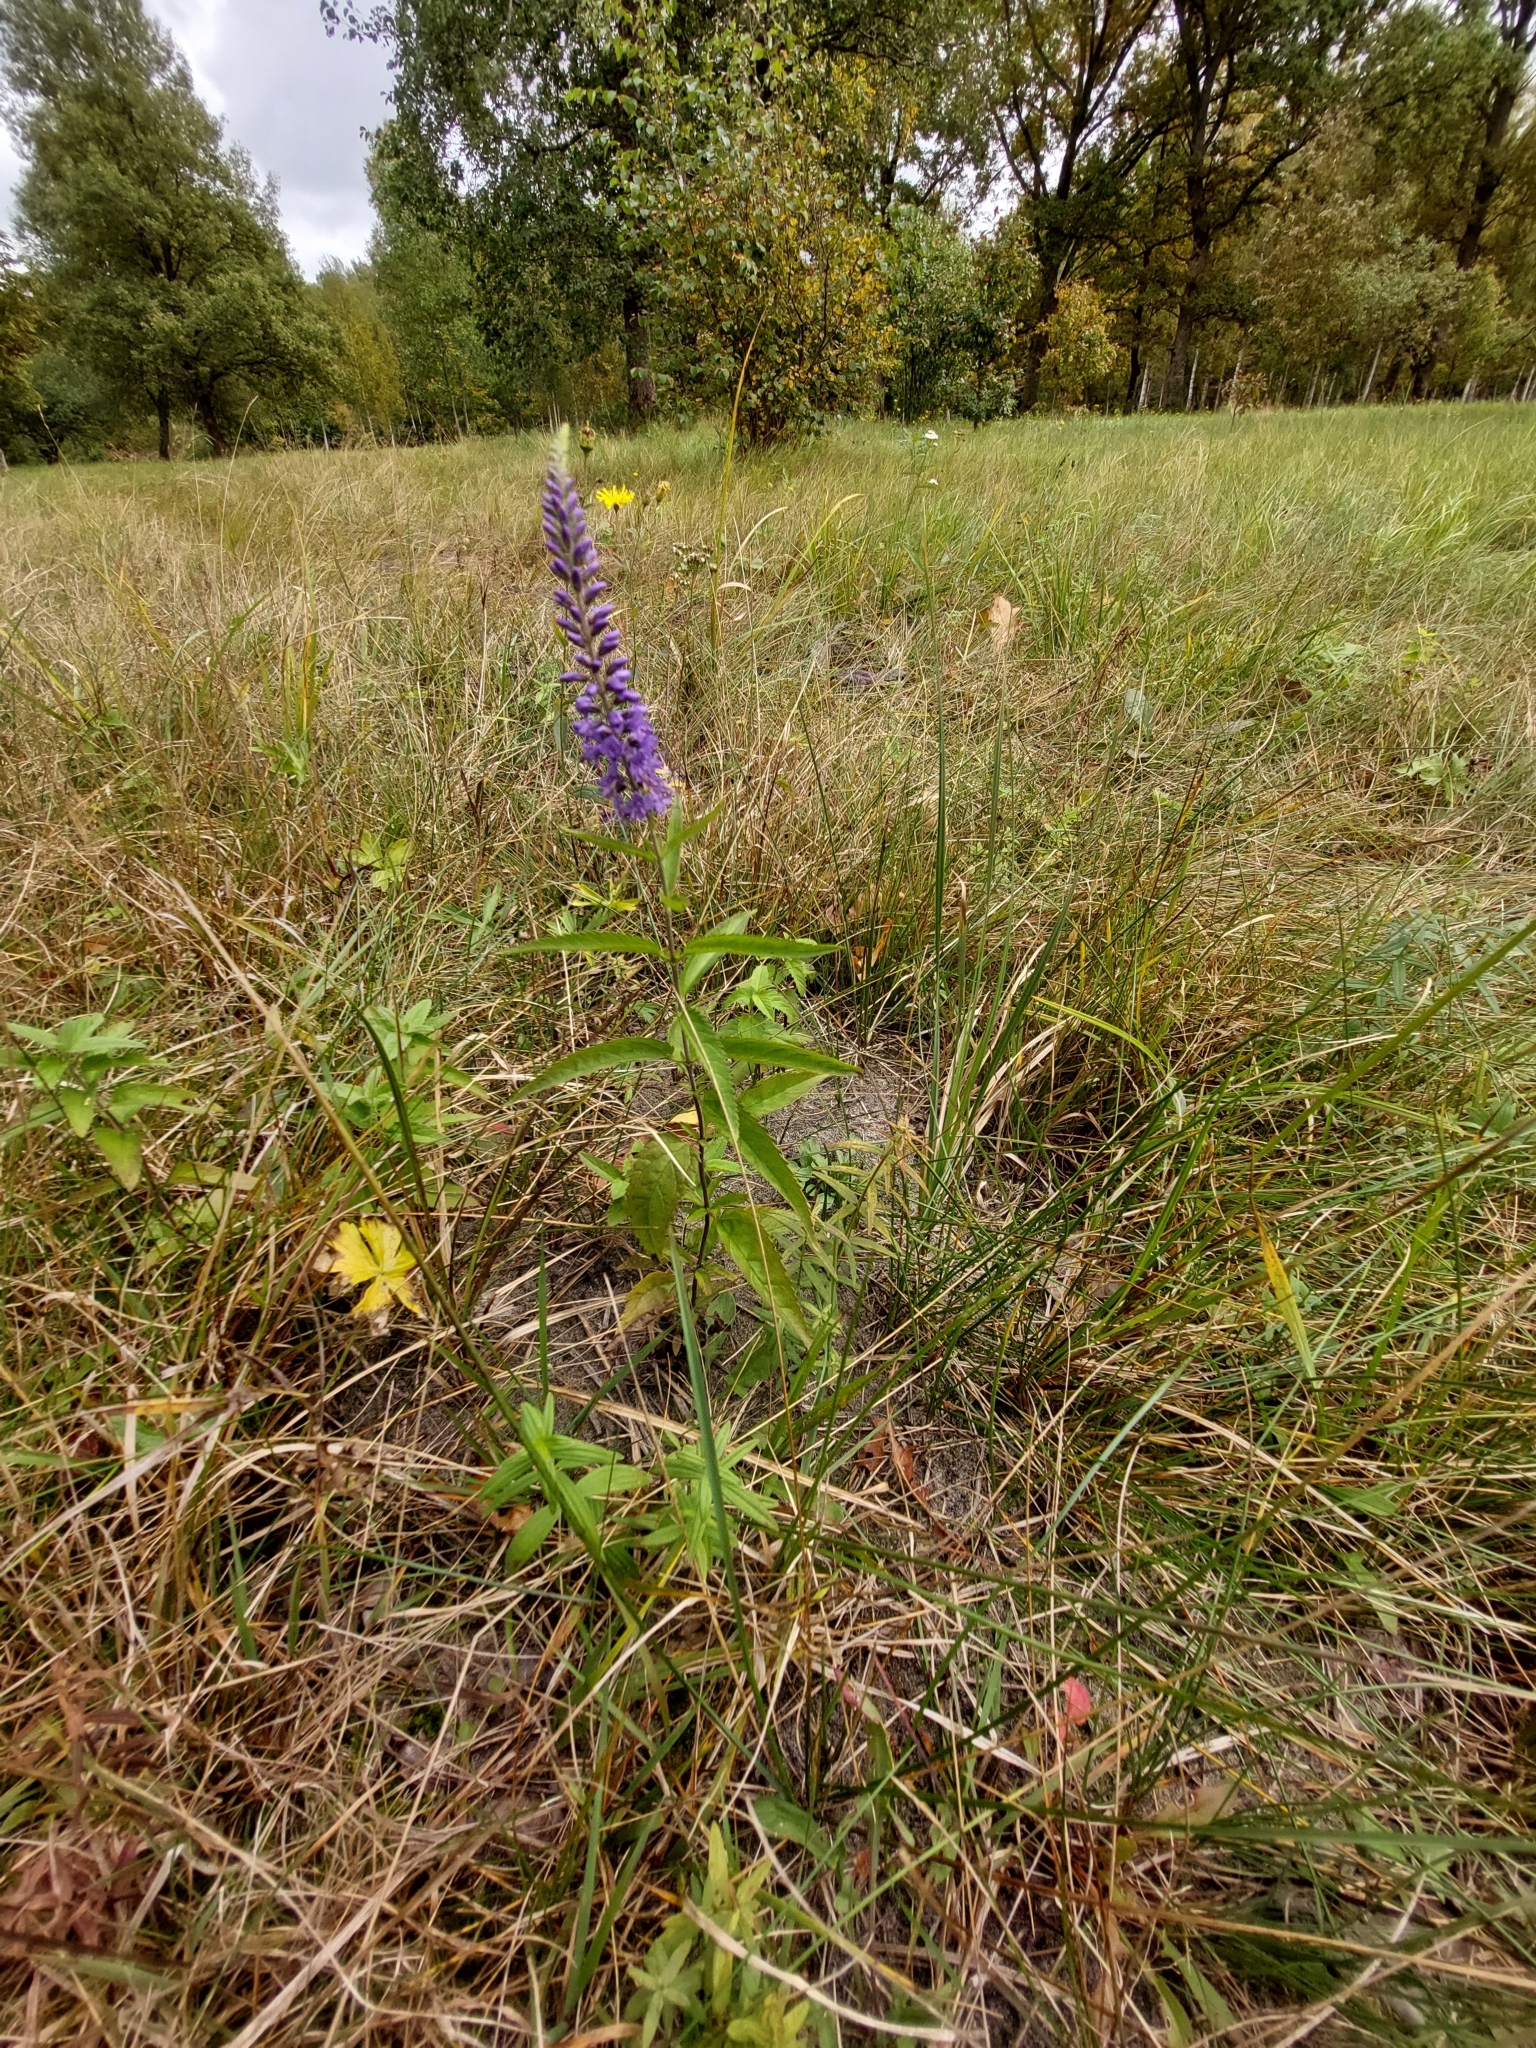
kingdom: Plantae
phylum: Tracheophyta
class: Magnoliopsida
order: Lamiales
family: Plantaginaceae
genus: Veronica
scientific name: Veronica longifolia
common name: Garden speedwell
